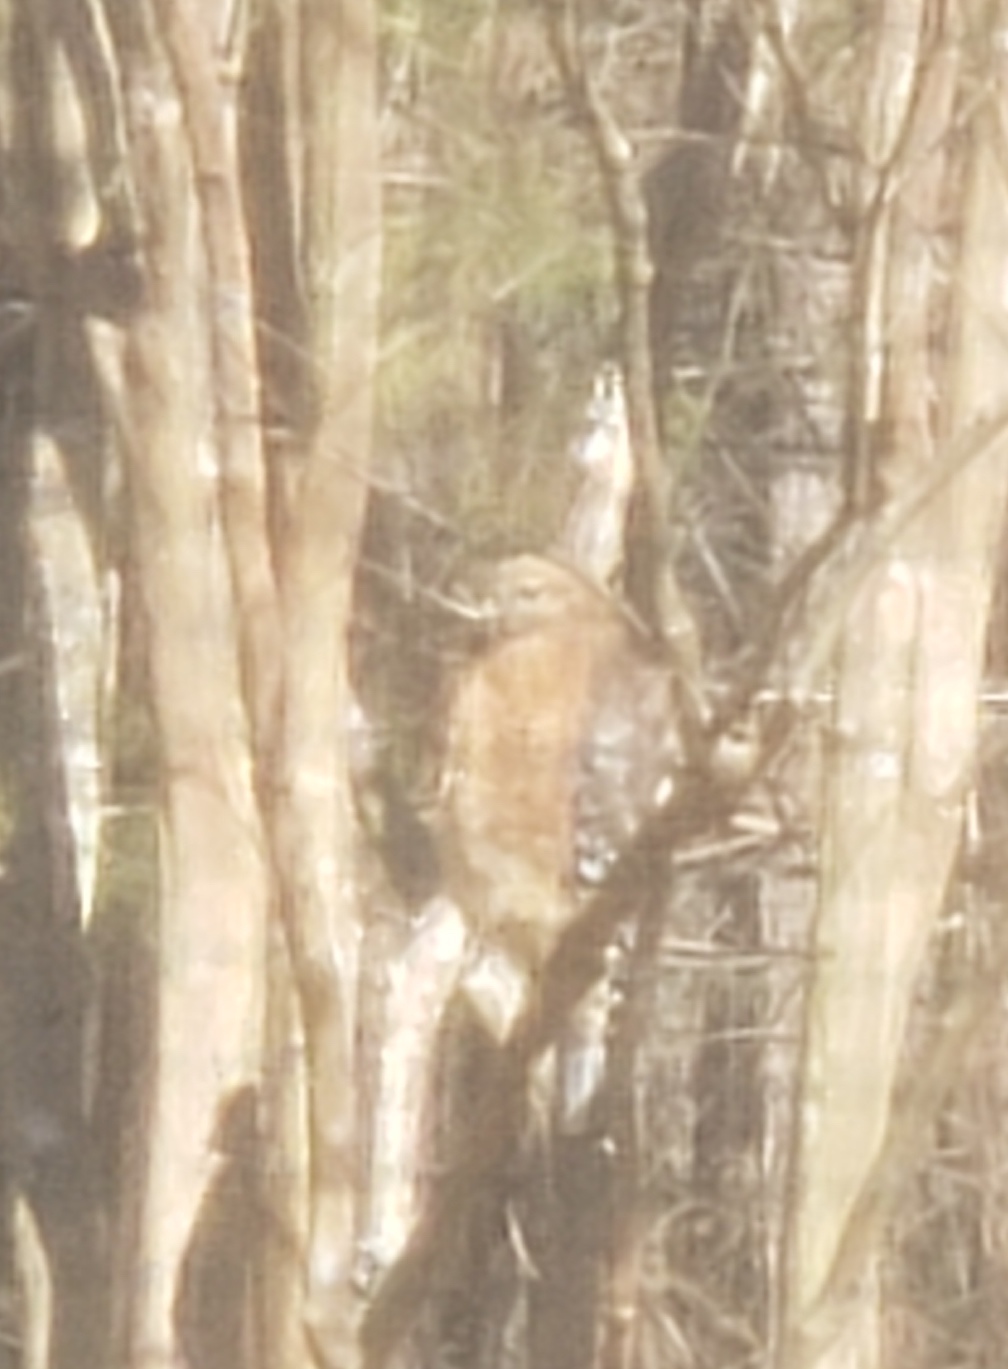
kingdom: Animalia
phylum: Chordata
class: Aves
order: Accipitriformes
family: Accipitridae
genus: Buteo
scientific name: Buteo lineatus
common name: Red-shouldered hawk
